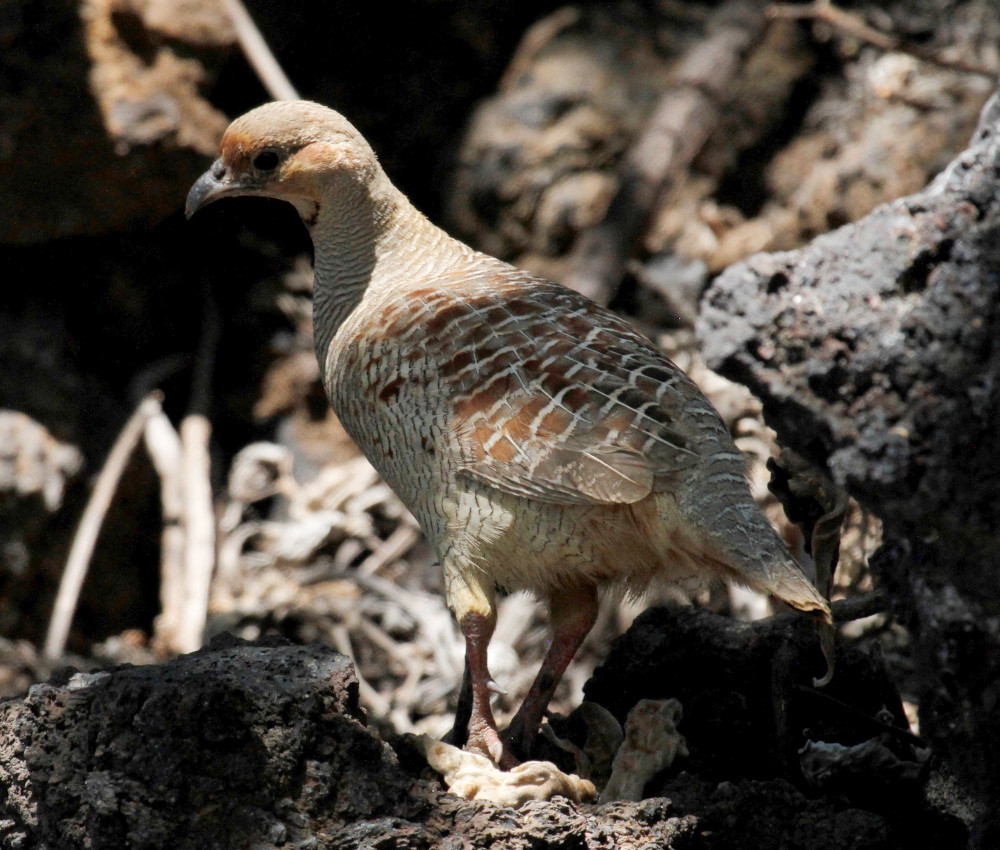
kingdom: Animalia
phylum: Chordata
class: Aves
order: Galliformes
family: Phasianidae
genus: Ortygornis
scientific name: Ortygornis pondicerianus
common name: Grey francolin
